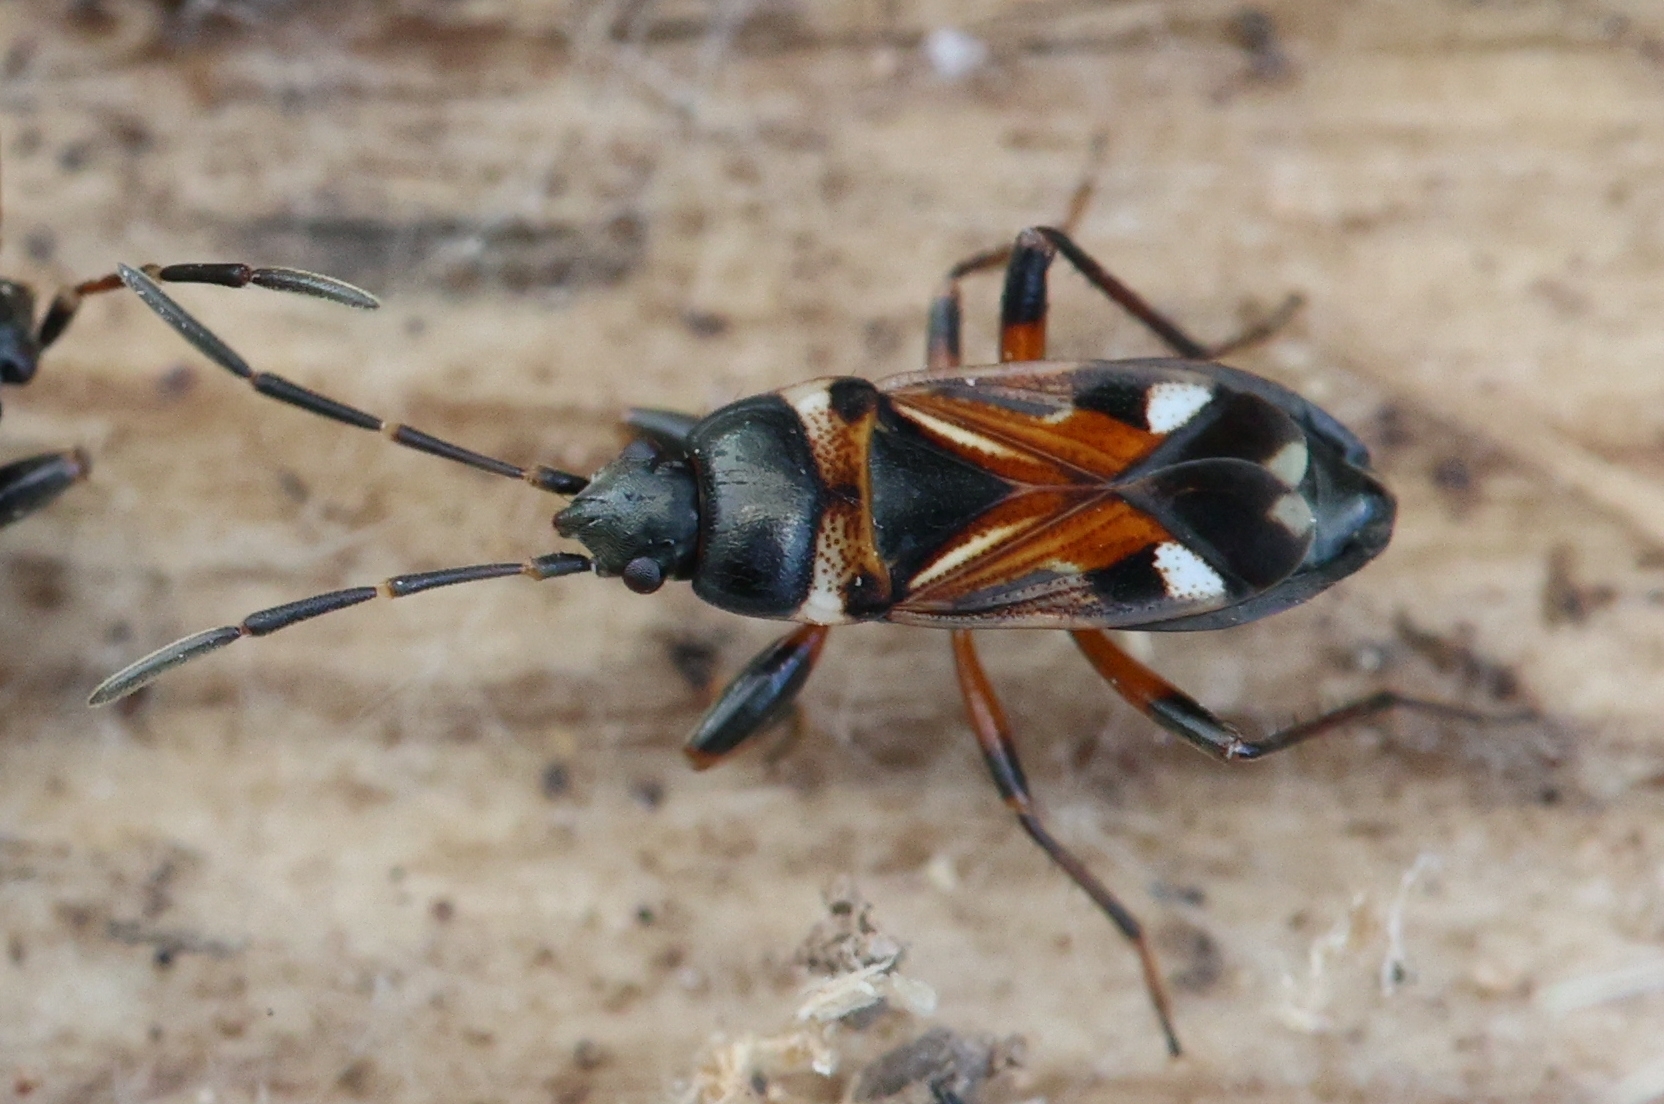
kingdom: Animalia
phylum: Arthropoda
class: Insecta
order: Hemiptera
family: Rhyparochromidae
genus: Raglius
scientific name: Raglius alboacuminatus
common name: Dirt-colored seed bug
